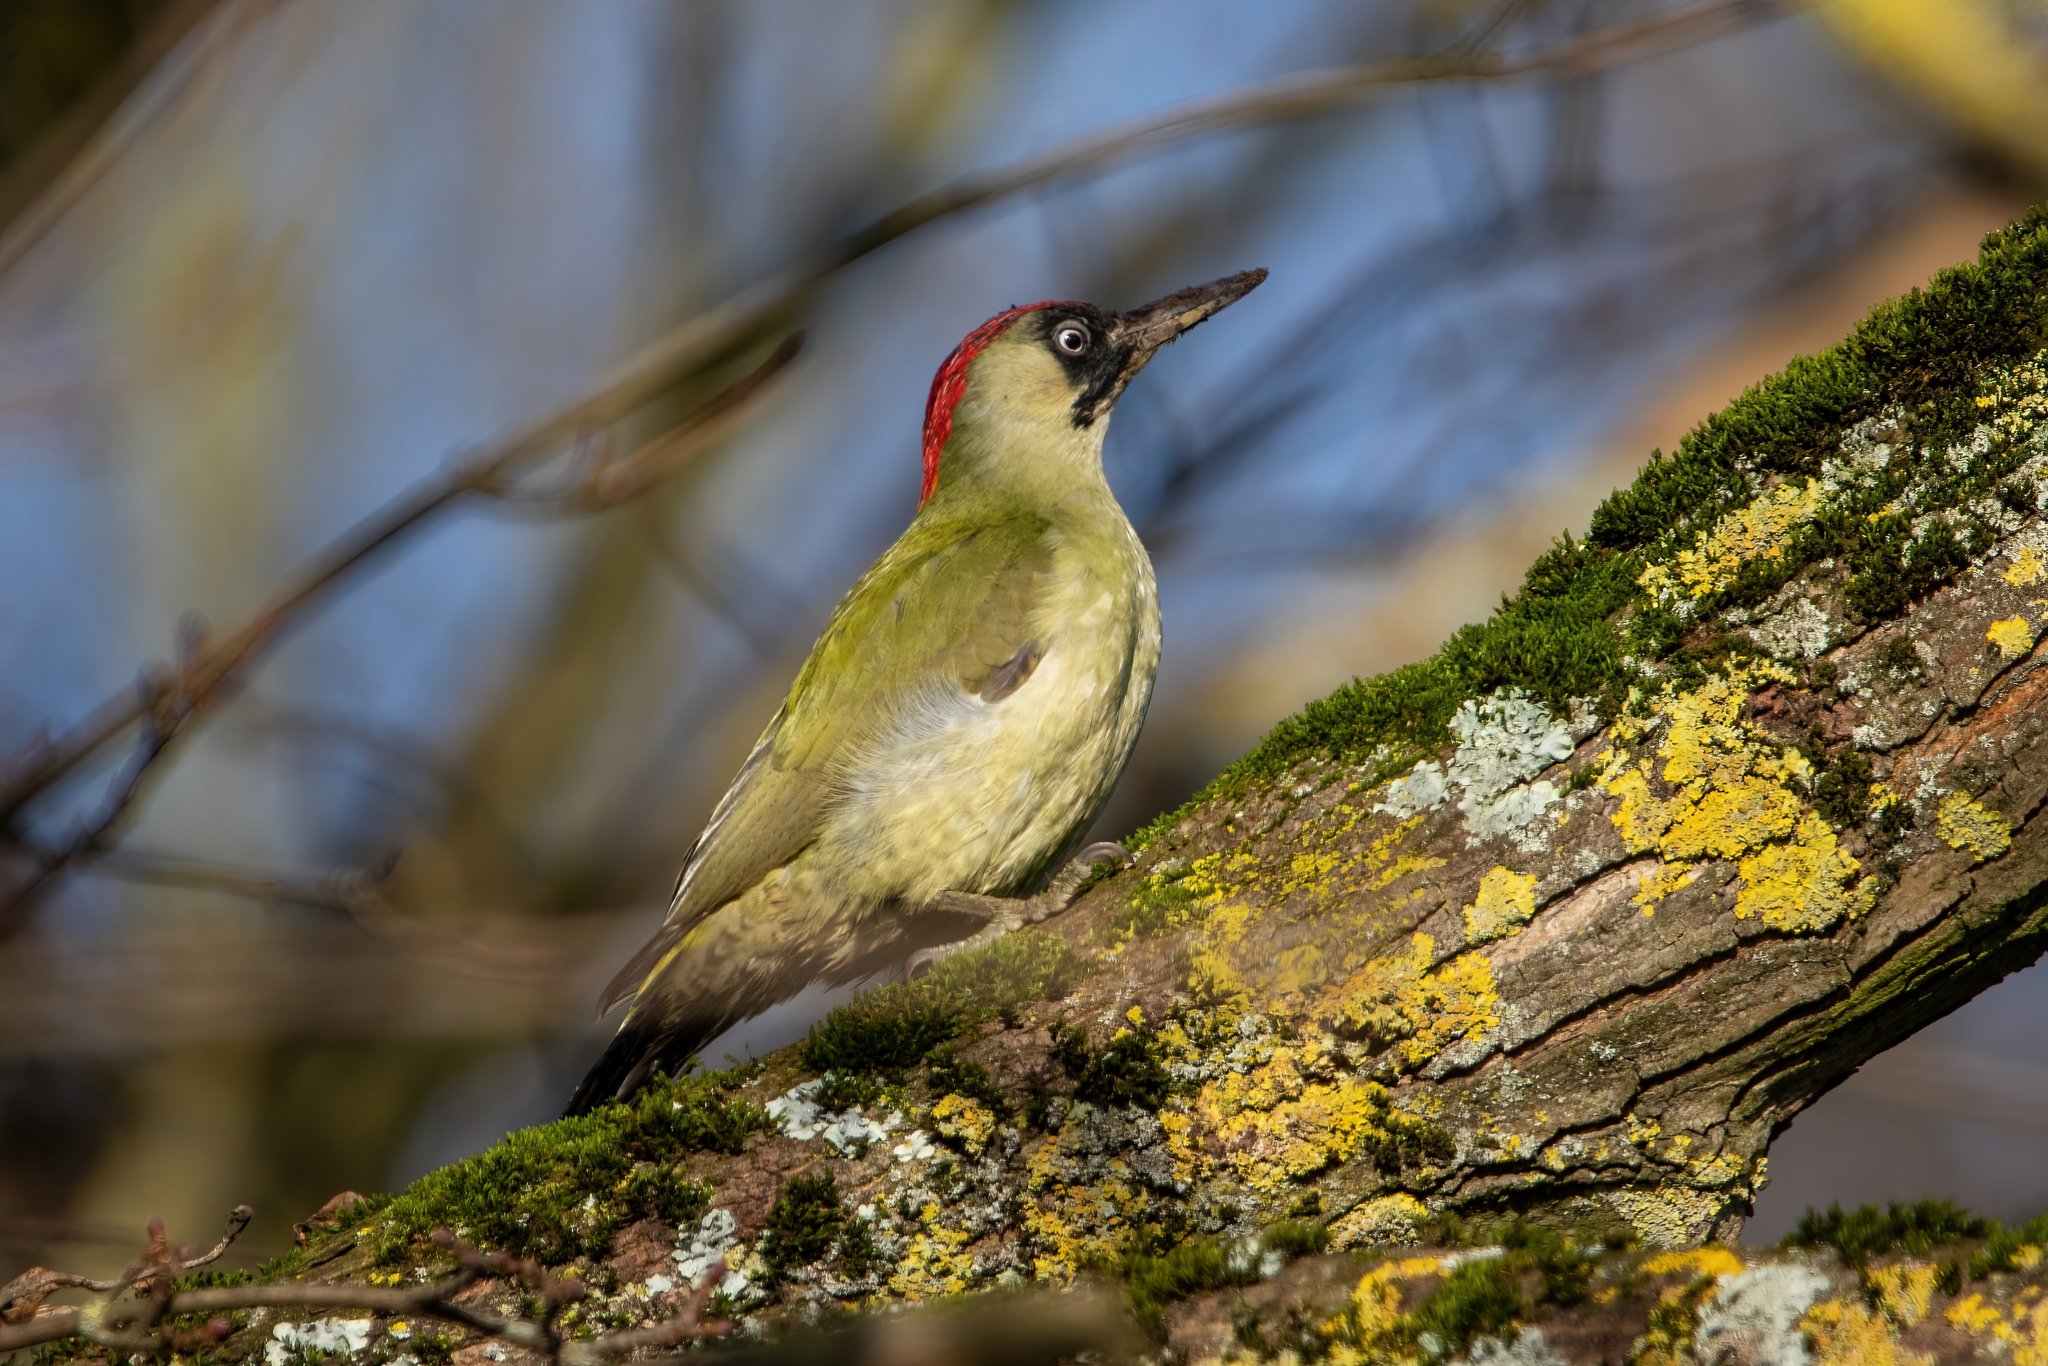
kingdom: Animalia
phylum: Chordata
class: Aves
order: Piciformes
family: Picidae
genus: Picus
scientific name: Picus viridis
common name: European green woodpecker
